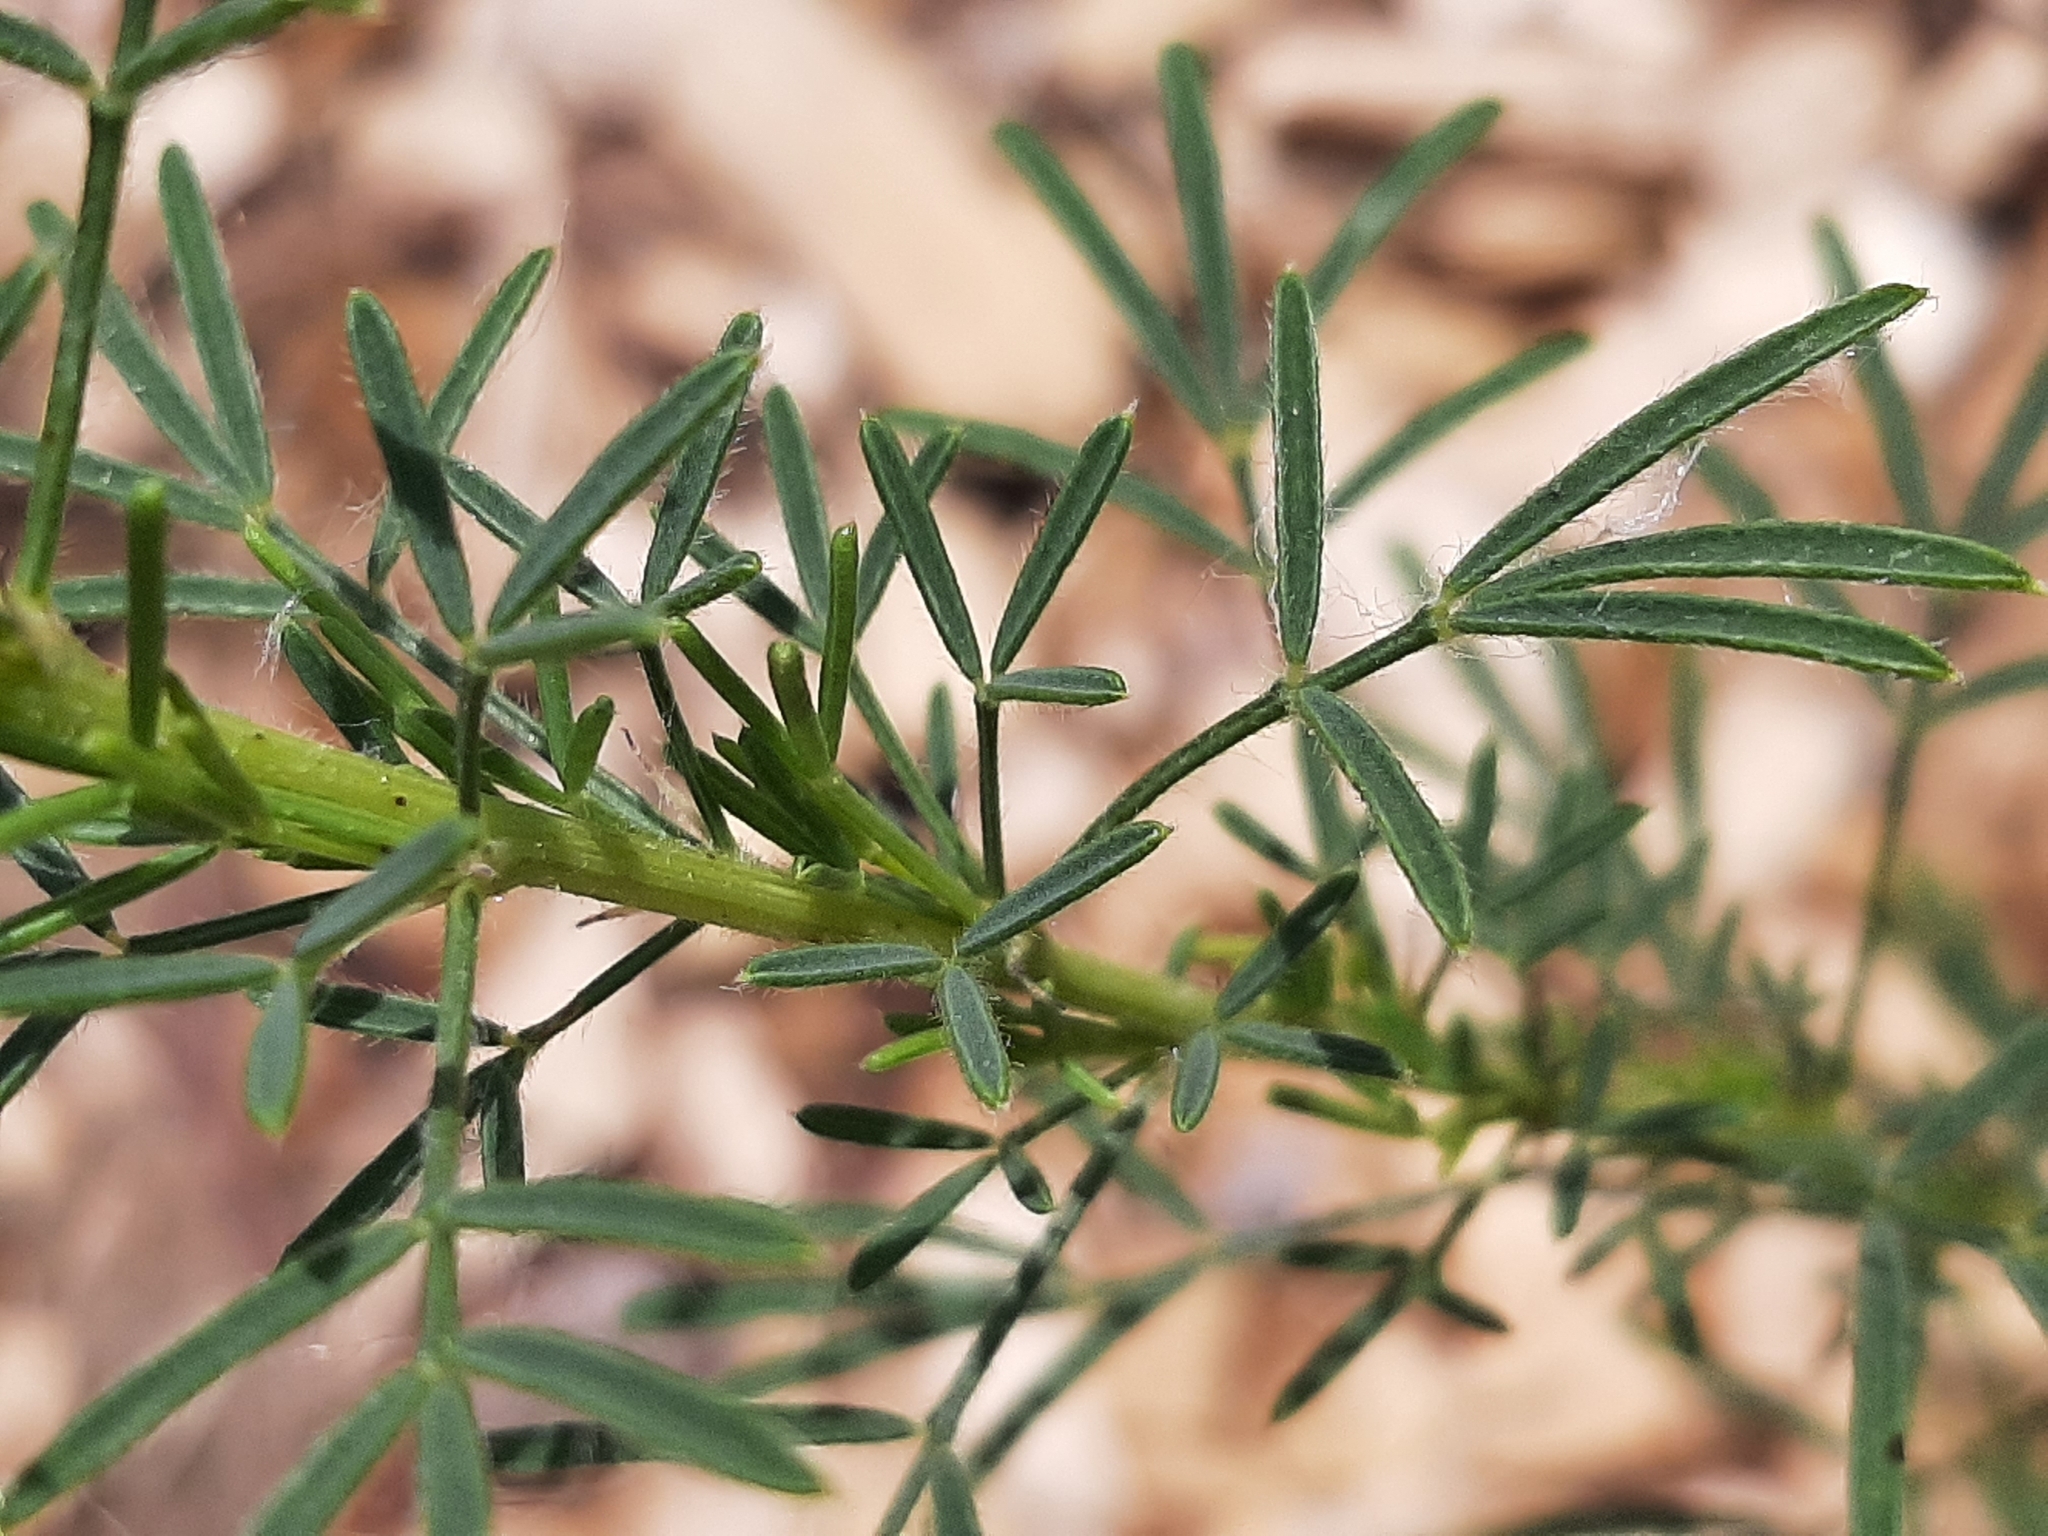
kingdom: Plantae
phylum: Tracheophyta
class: Magnoliopsida
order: Fabales
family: Fabaceae
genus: Dalea
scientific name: Dalea purpurea
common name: Purple prairie-clover
